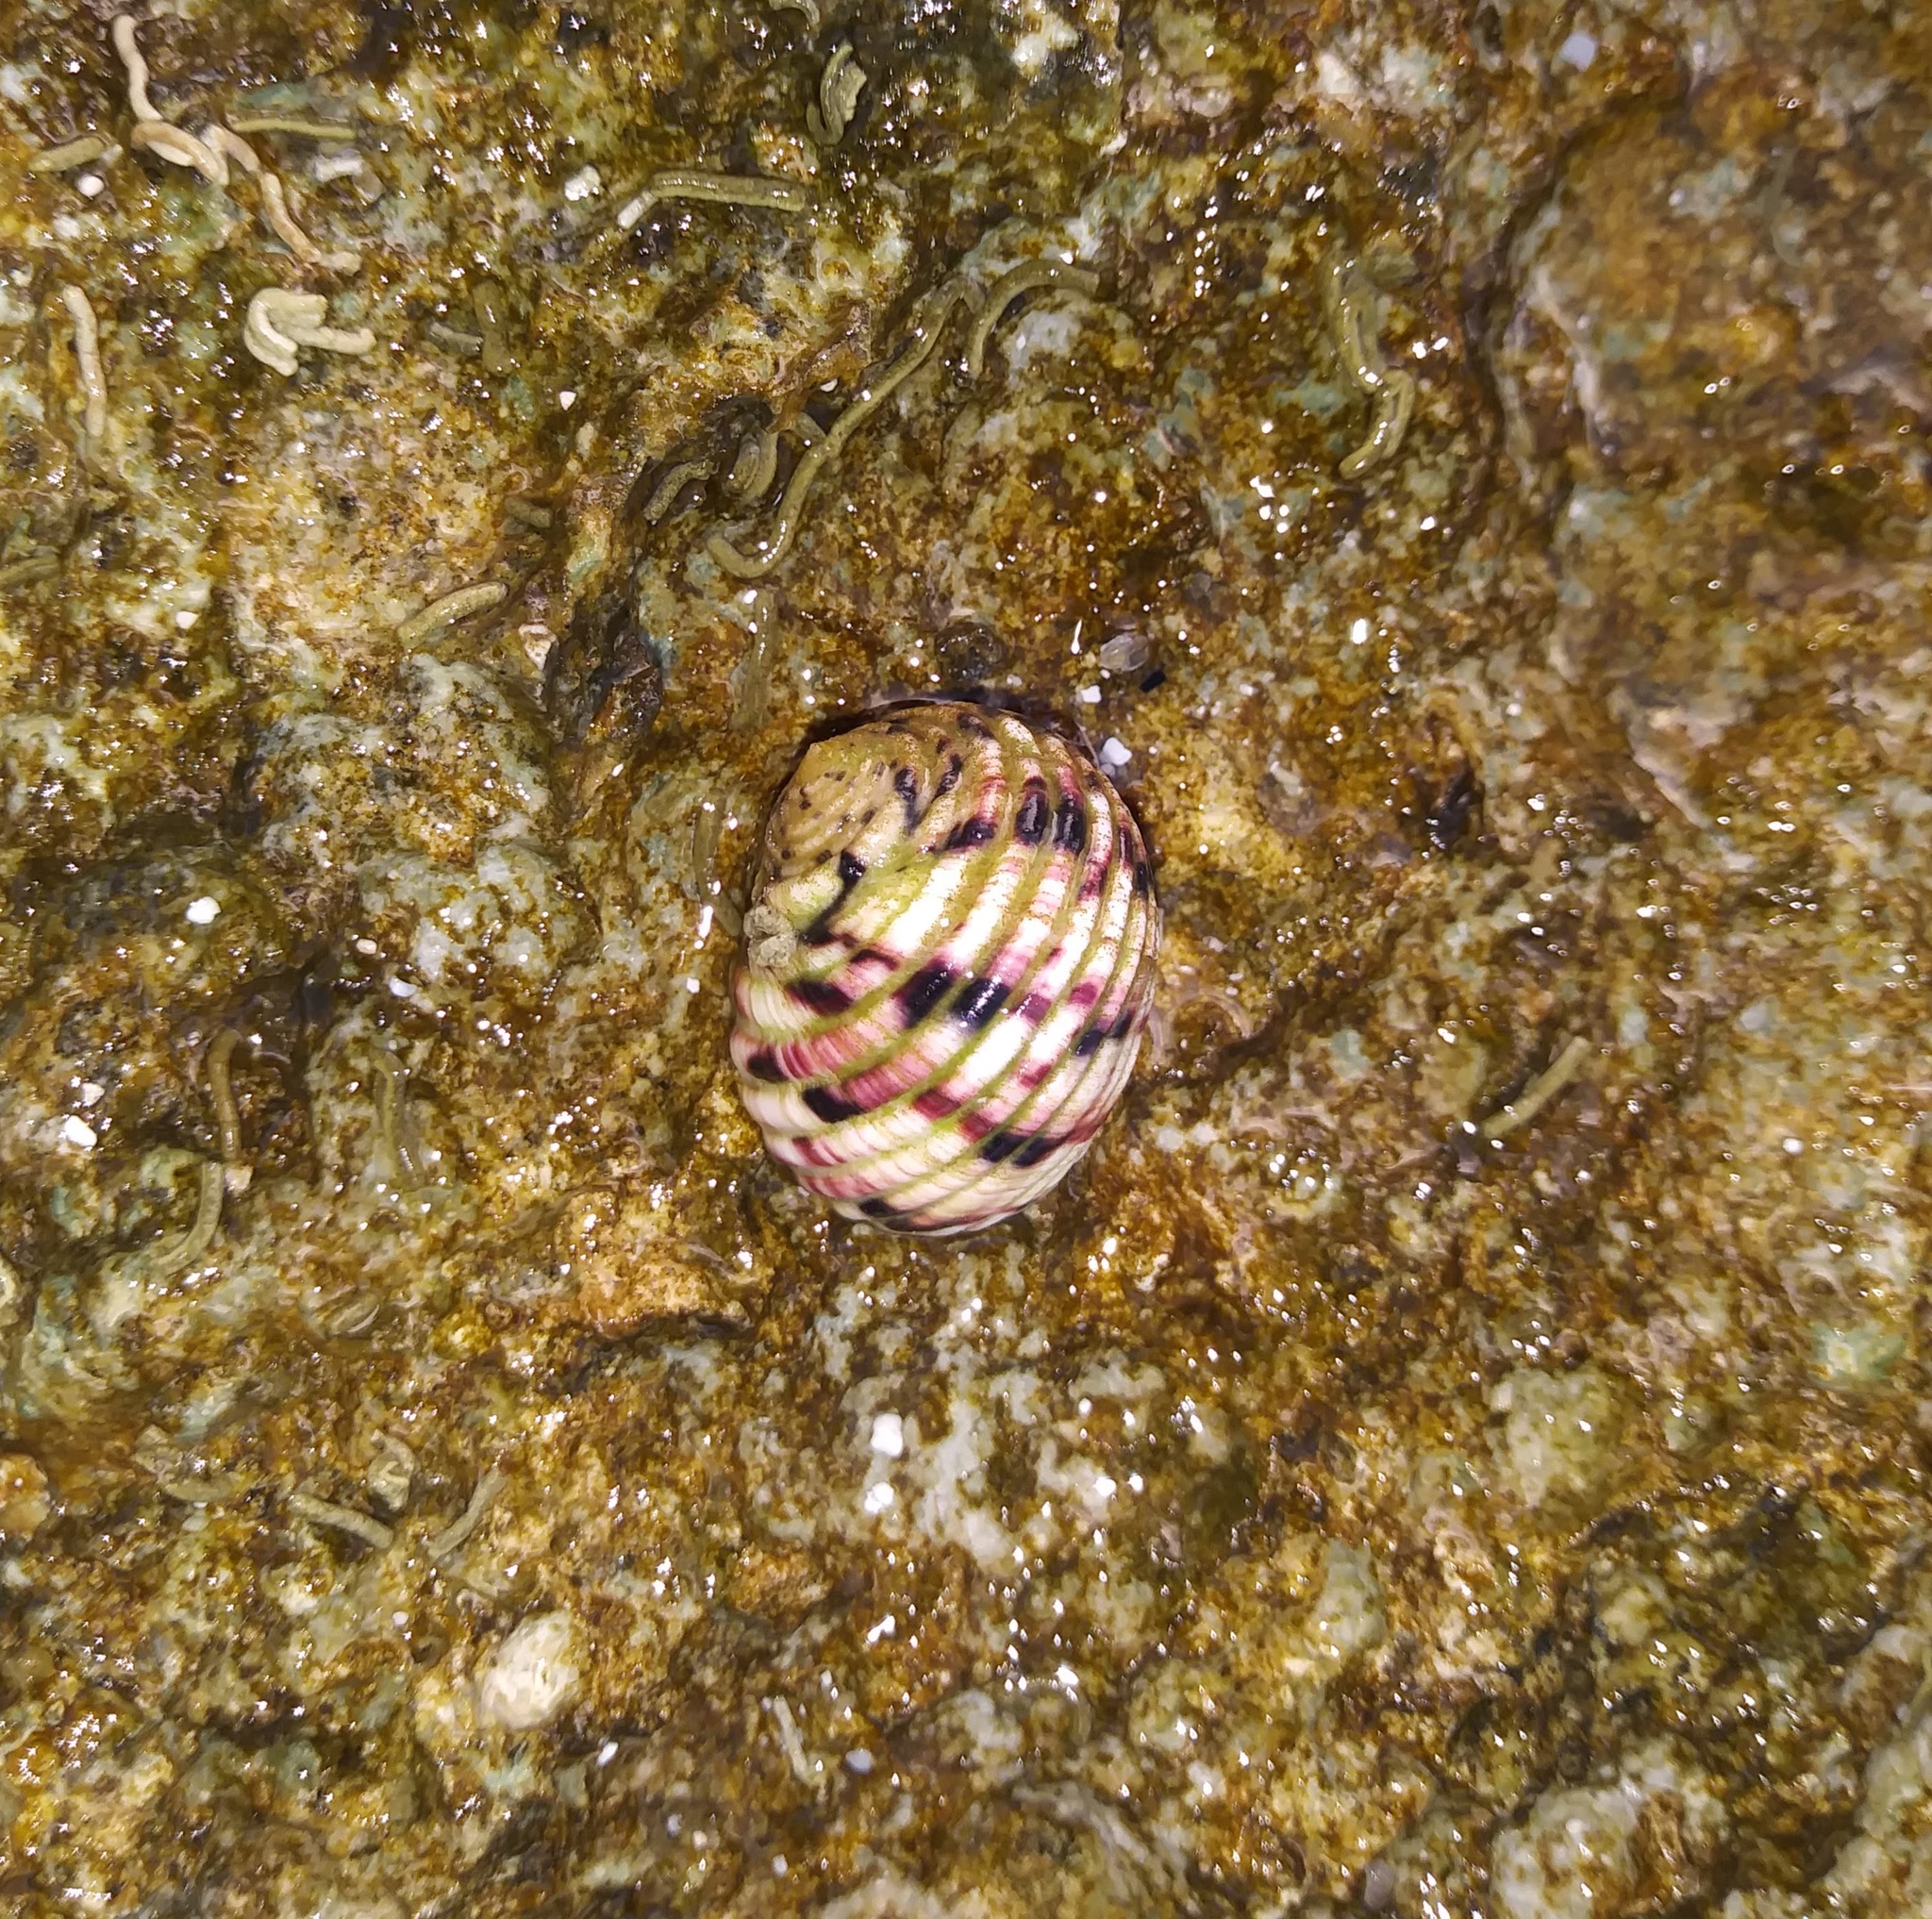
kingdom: Animalia
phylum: Mollusca
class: Gastropoda
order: Cycloneritida
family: Neritidae
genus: Nerita
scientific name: Nerita versicolor
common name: Four-tooth nerite
